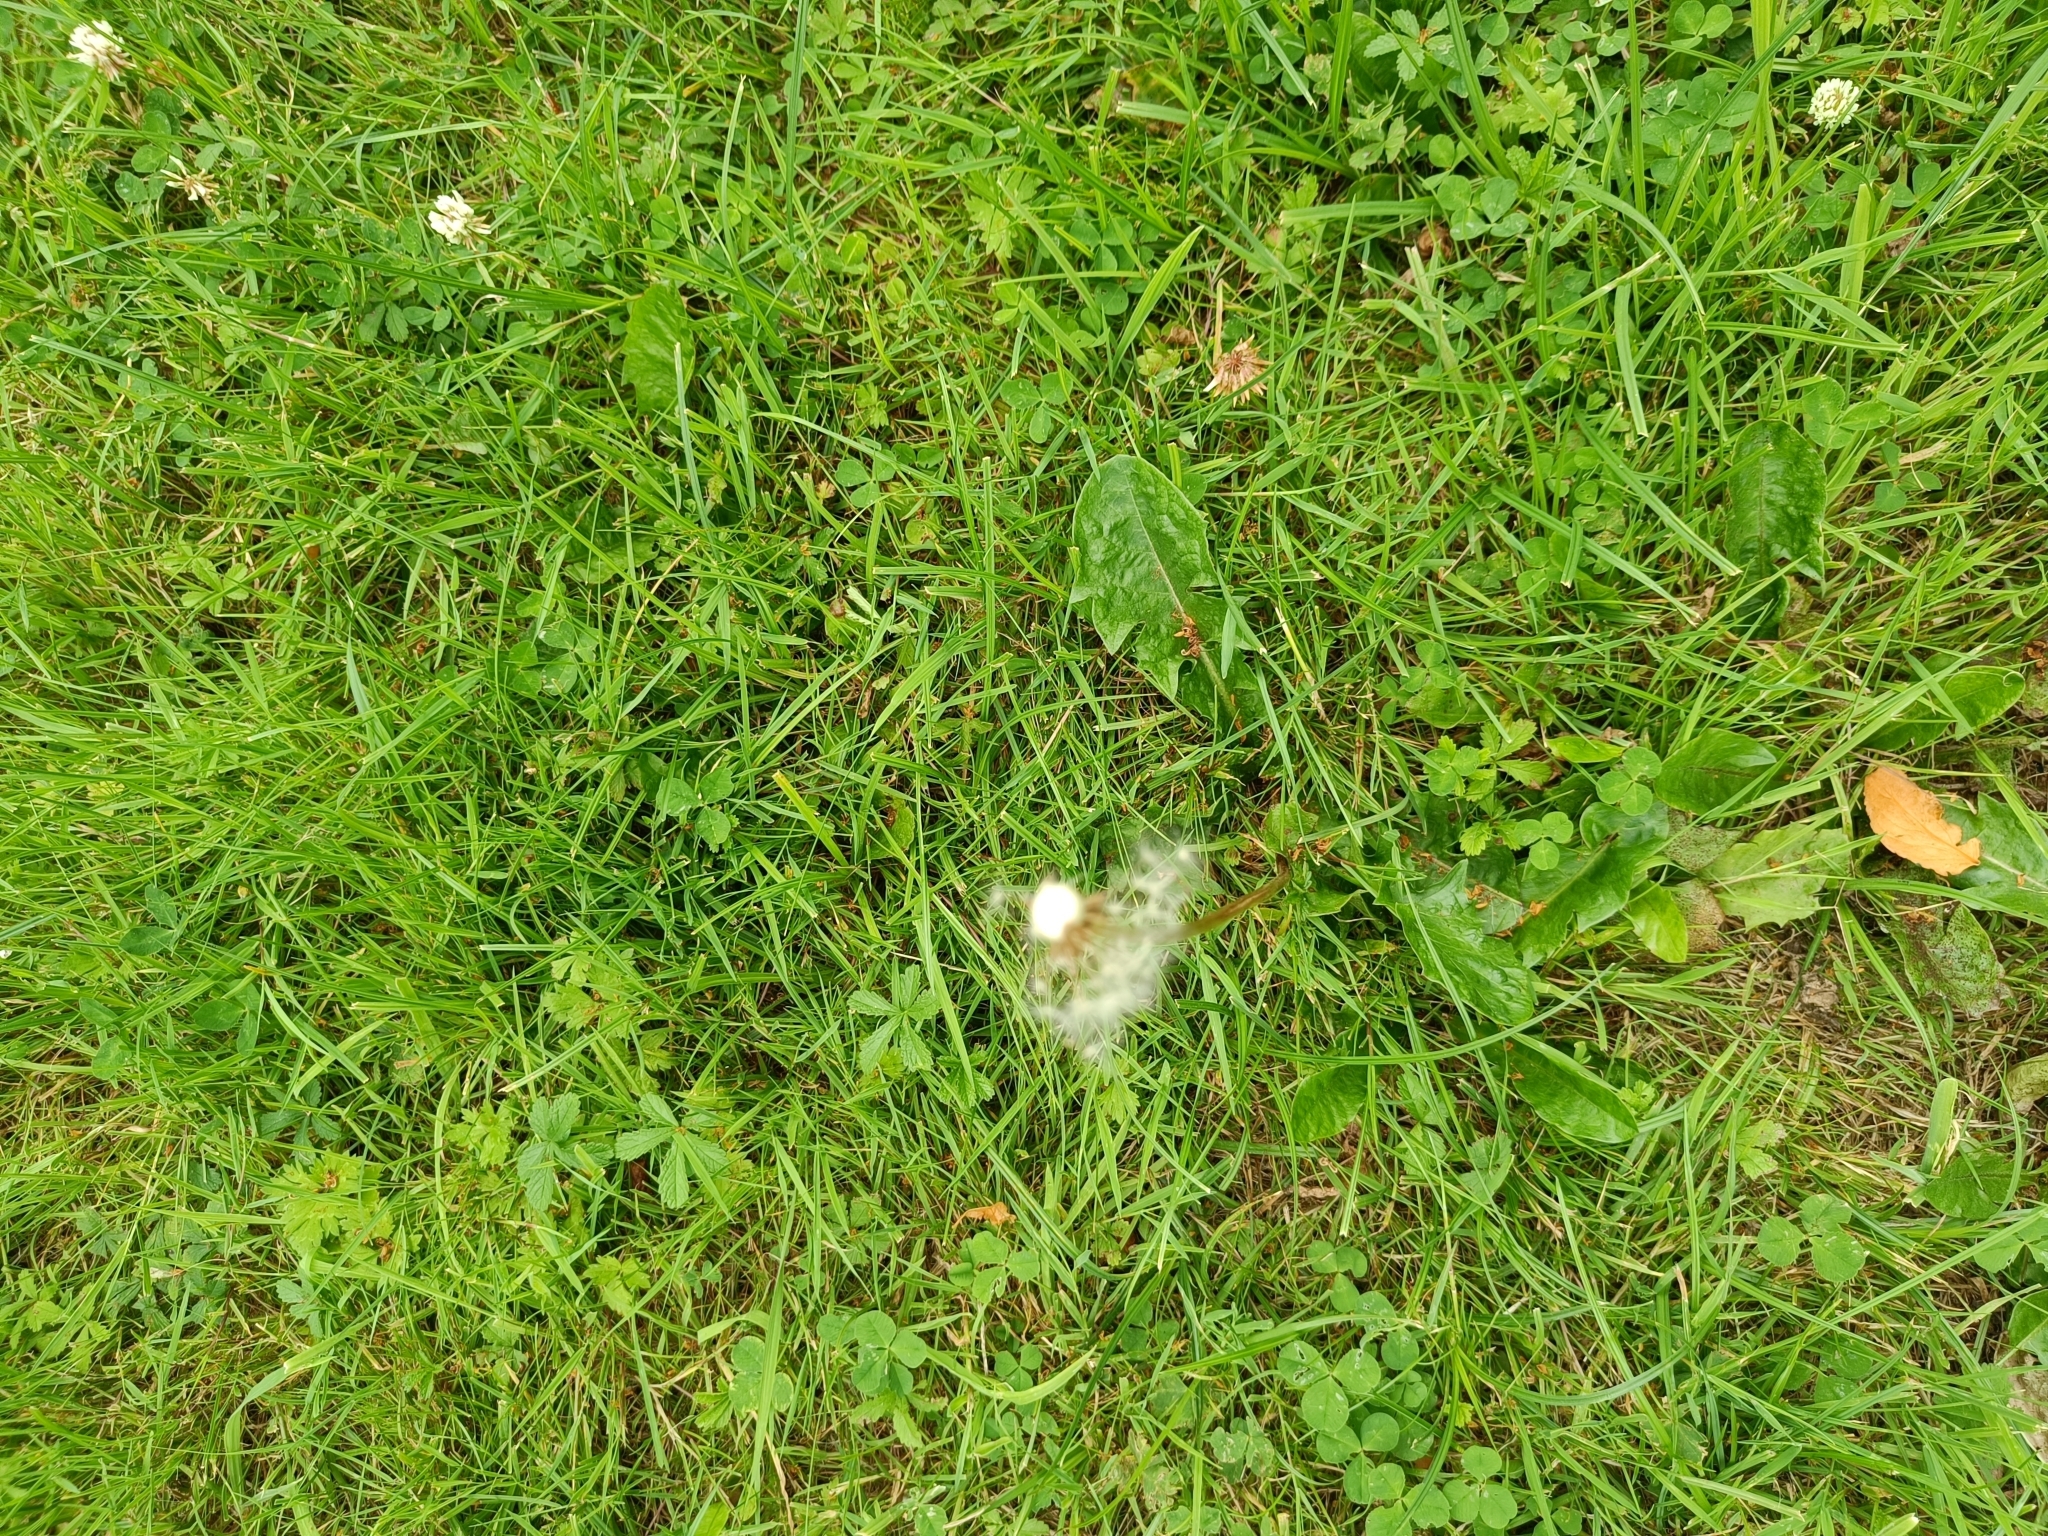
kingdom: Plantae
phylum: Tracheophyta
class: Magnoliopsida
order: Asterales
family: Asteraceae
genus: Taraxacum
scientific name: Taraxacum officinale
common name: Common dandelion
